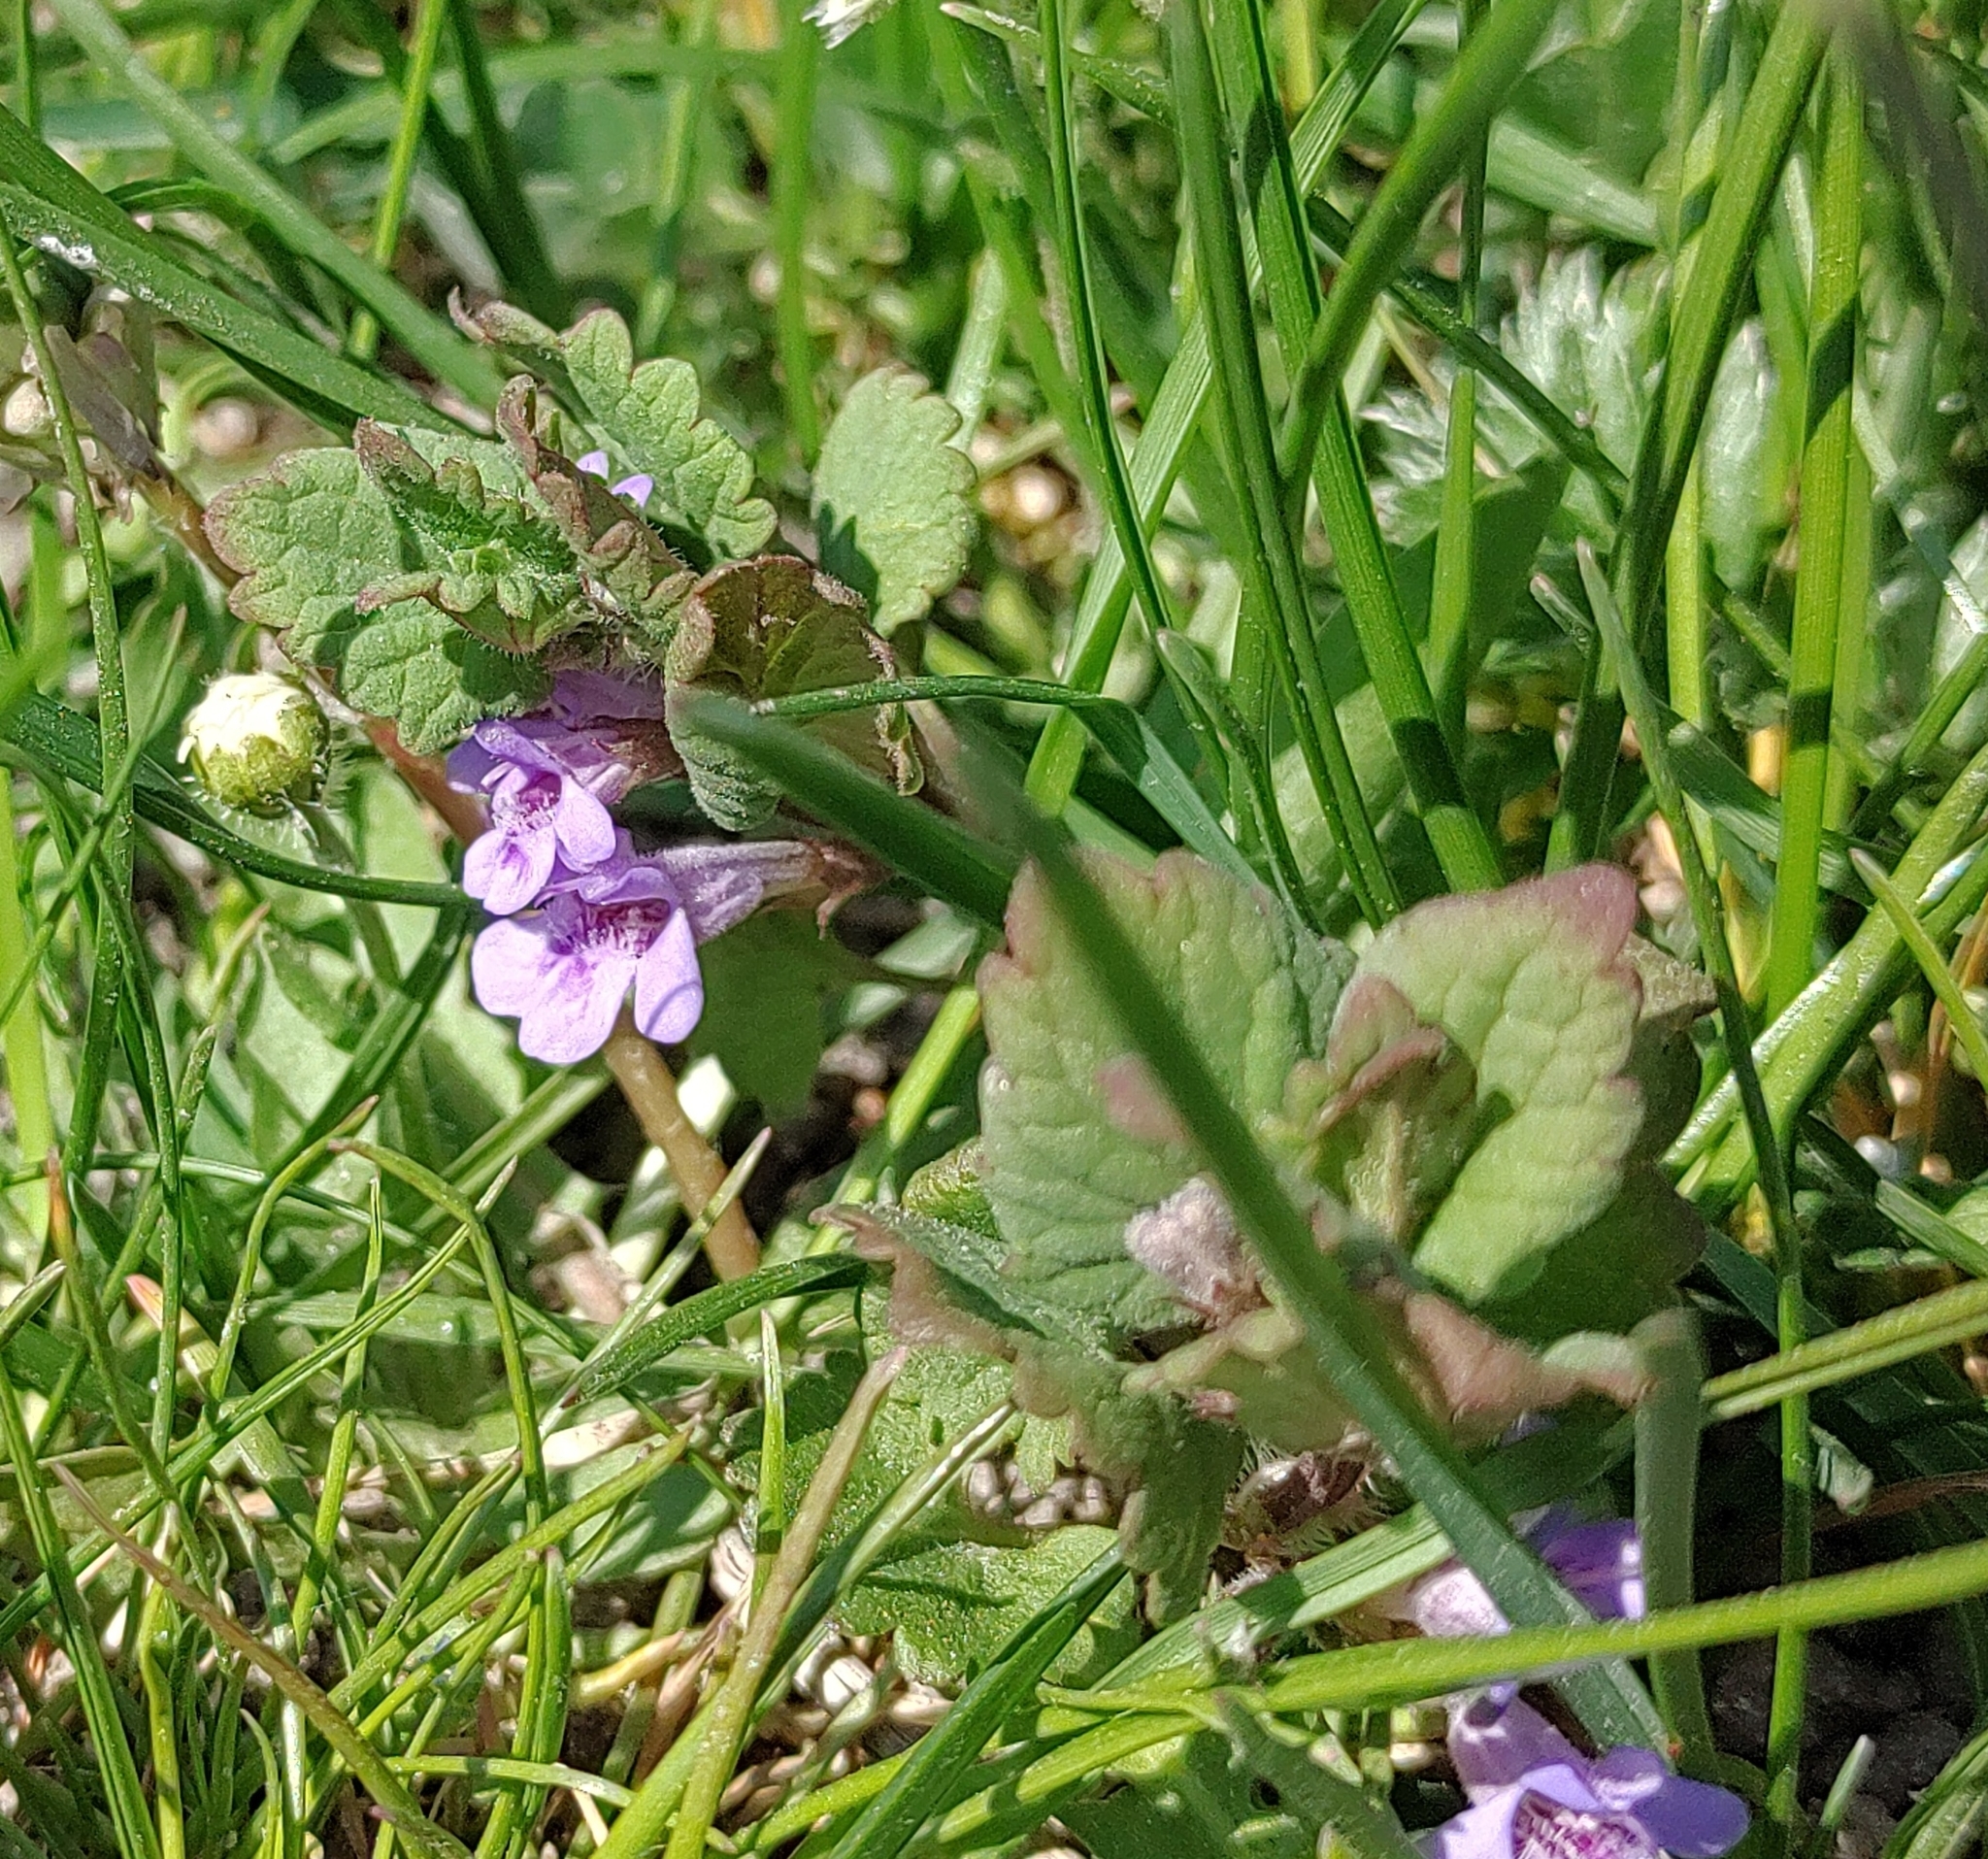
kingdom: Plantae
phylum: Tracheophyta
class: Magnoliopsida
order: Lamiales
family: Lamiaceae
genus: Glechoma
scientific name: Glechoma hederacea
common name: Ground ivy
